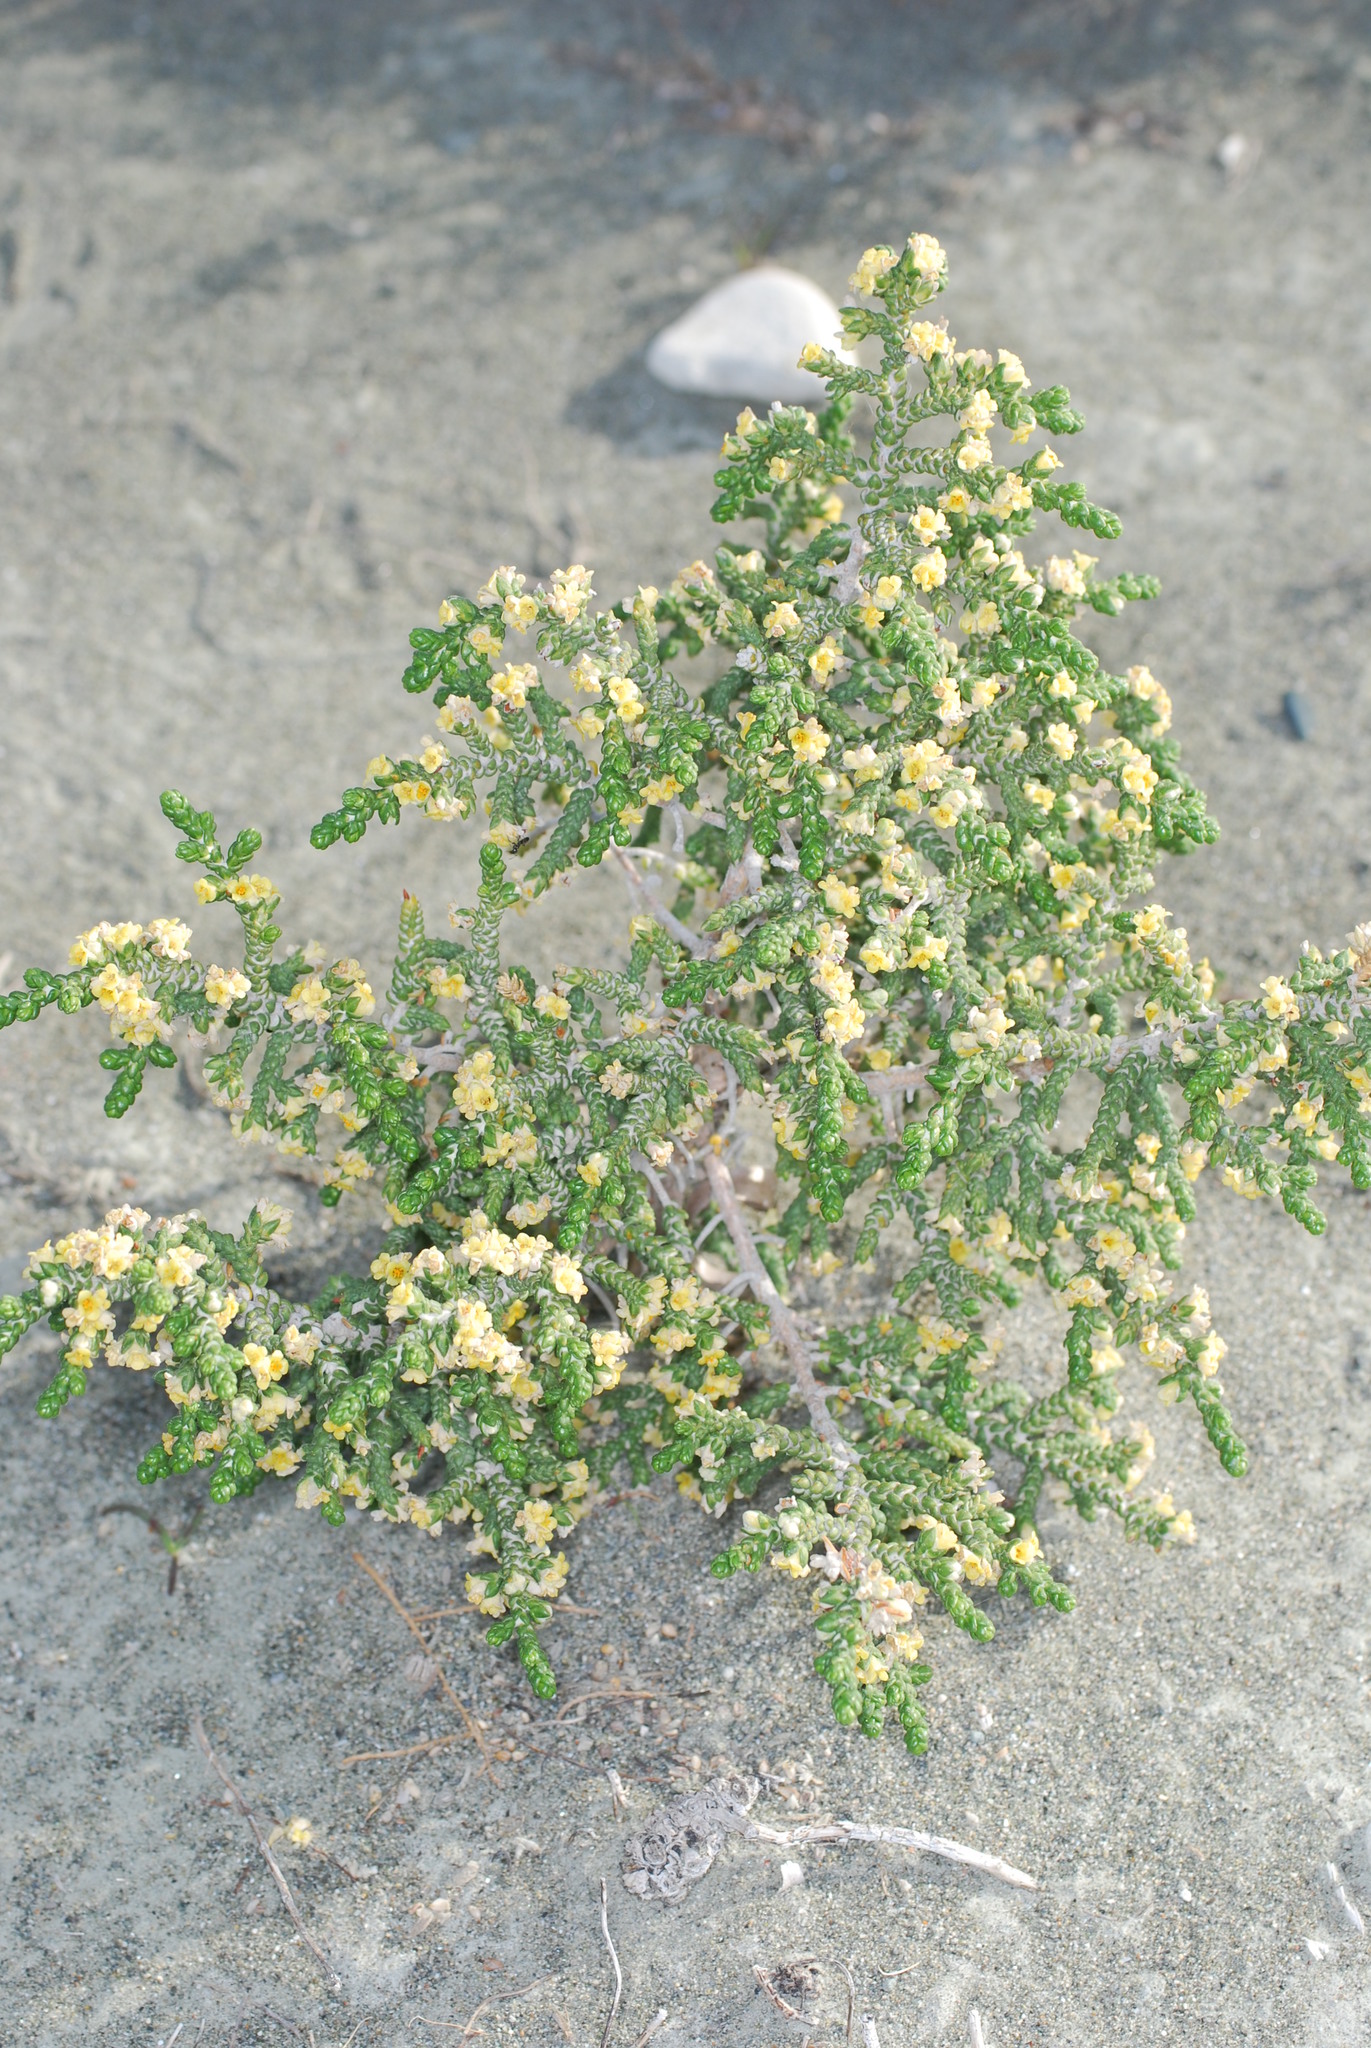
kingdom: Plantae
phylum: Tracheophyta
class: Magnoliopsida
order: Malvales
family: Thymelaeaceae
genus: Thymelaea
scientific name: Thymelaea hirsuta
